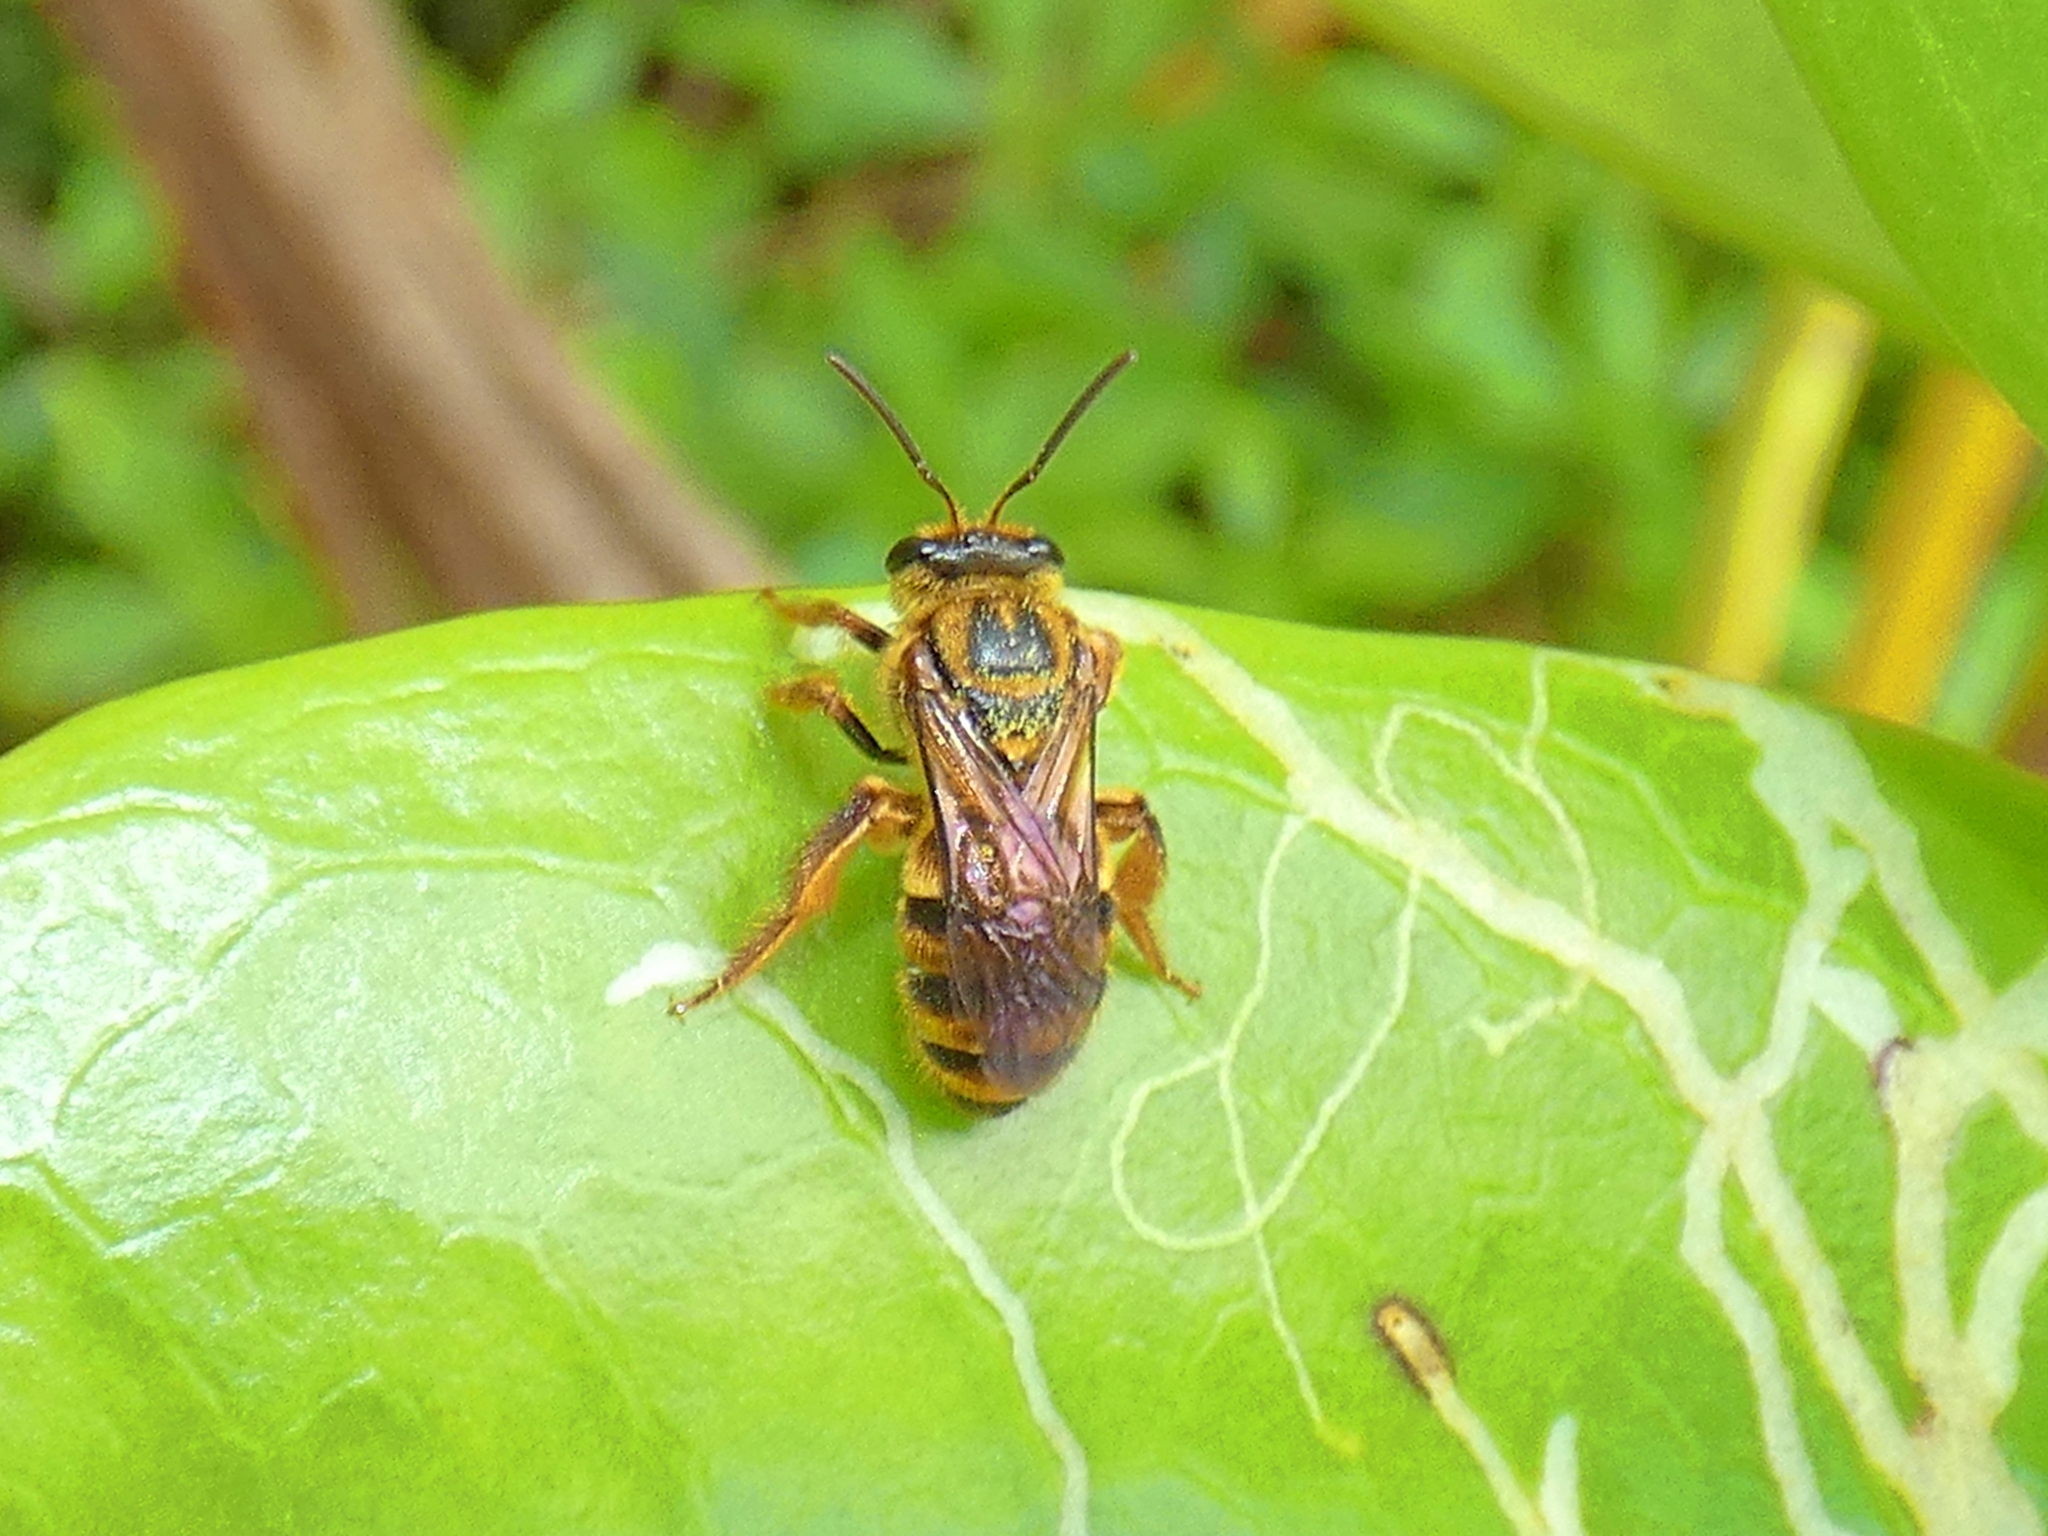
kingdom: Animalia
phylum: Arthropoda
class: Insecta
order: Hymenoptera
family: Halictidae
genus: Mellitidia
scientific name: Mellitidia tomentifera
